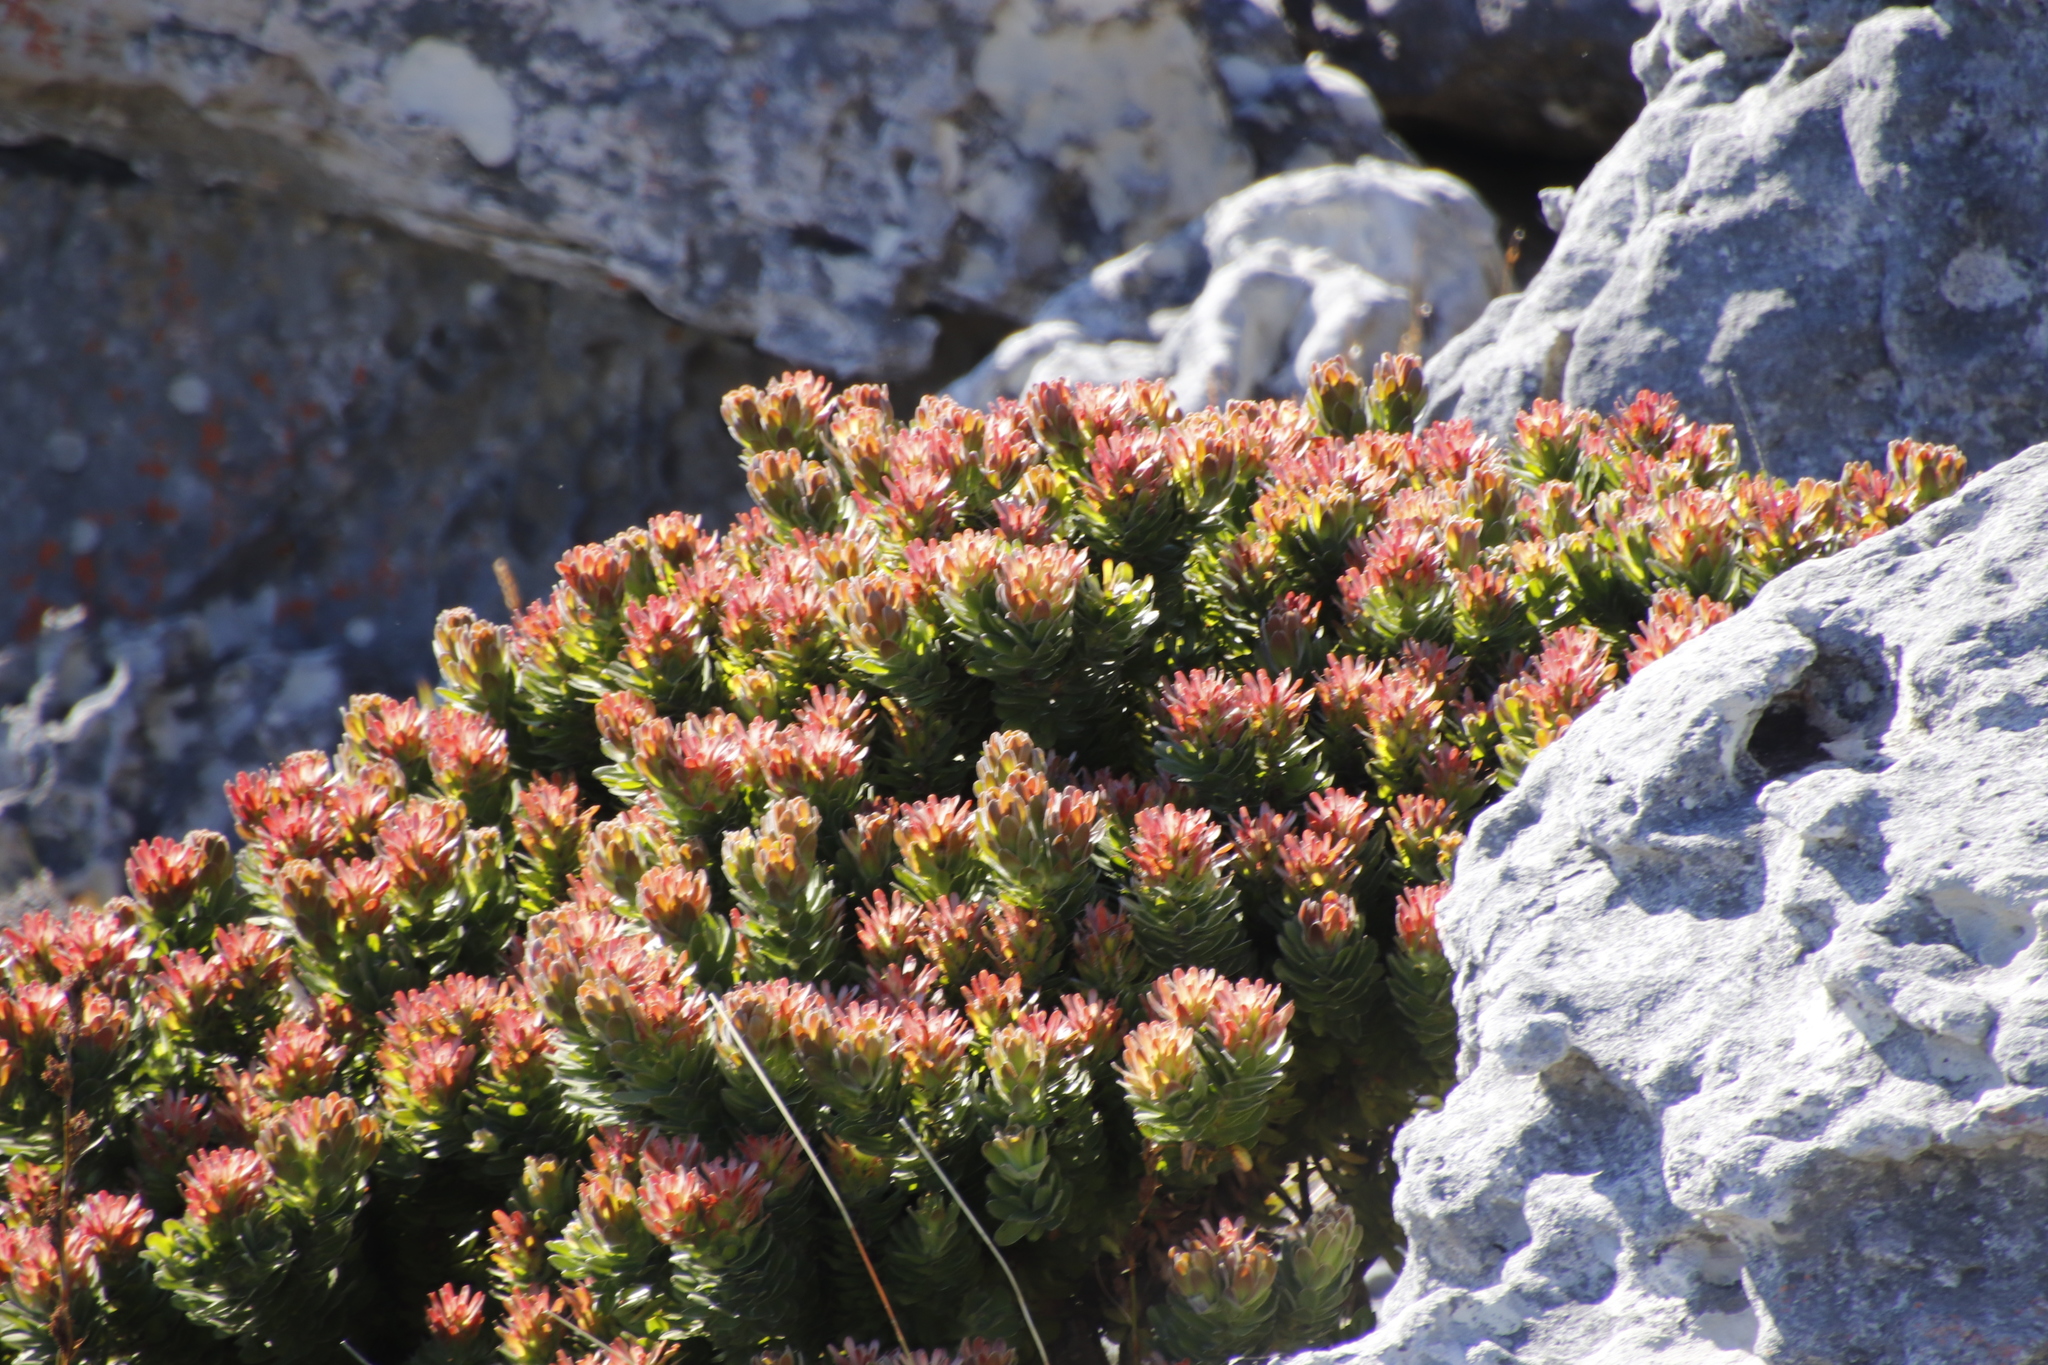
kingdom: Plantae
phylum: Tracheophyta
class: Magnoliopsida
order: Proteales
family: Proteaceae
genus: Mimetes
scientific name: Mimetes fimbriifolius
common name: Fringed bottlebrush
